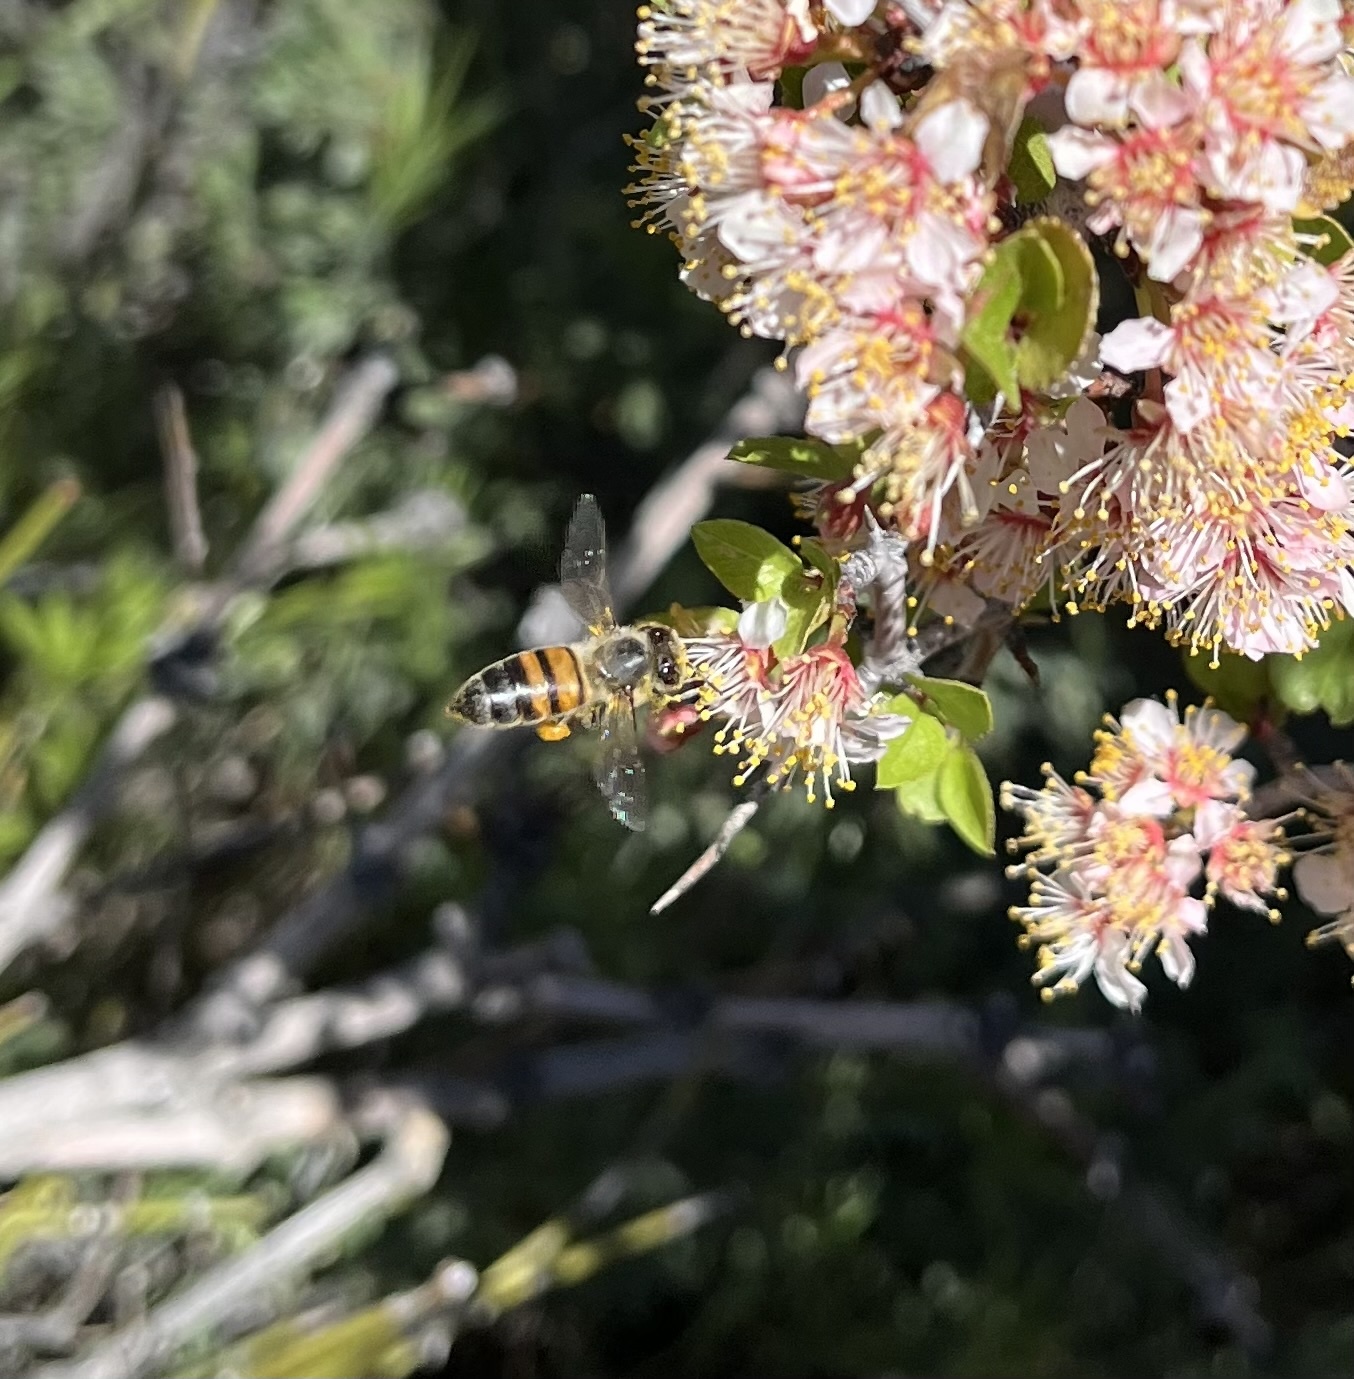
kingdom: Animalia
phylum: Arthropoda
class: Insecta
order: Hymenoptera
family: Apidae
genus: Apis
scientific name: Apis mellifera
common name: Honey bee
